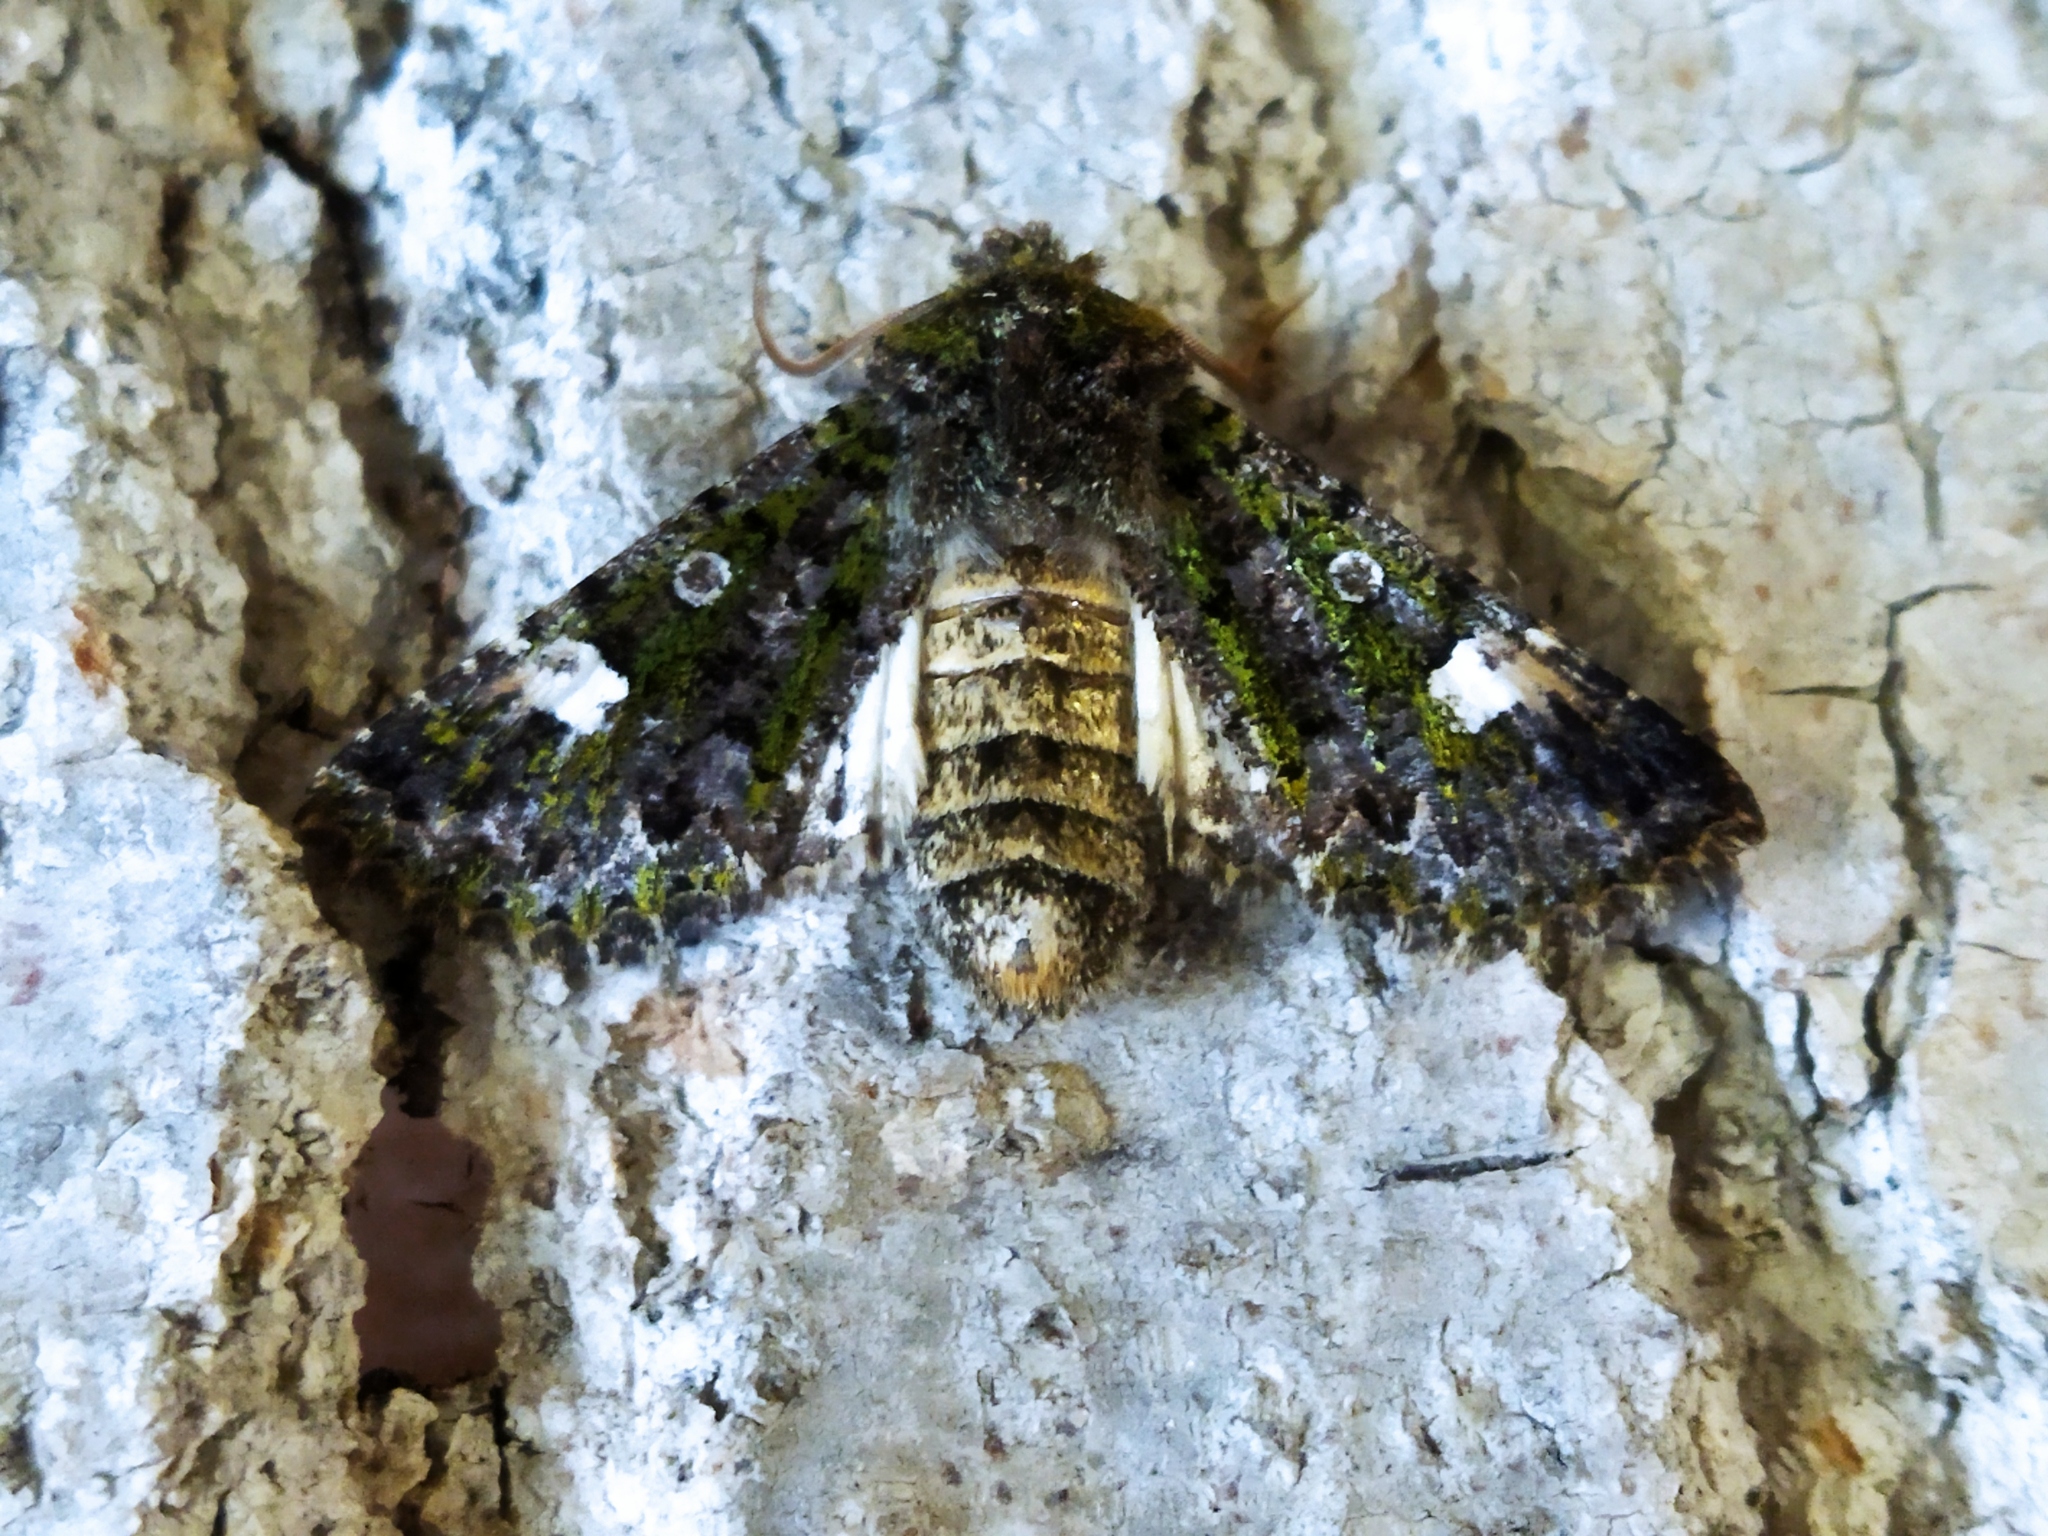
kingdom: Animalia
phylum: Arthropoda
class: Insecta
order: Lepidoptera
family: Noctuidae
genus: Valeria
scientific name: Valeria oleagina
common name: Green-brindled dot
